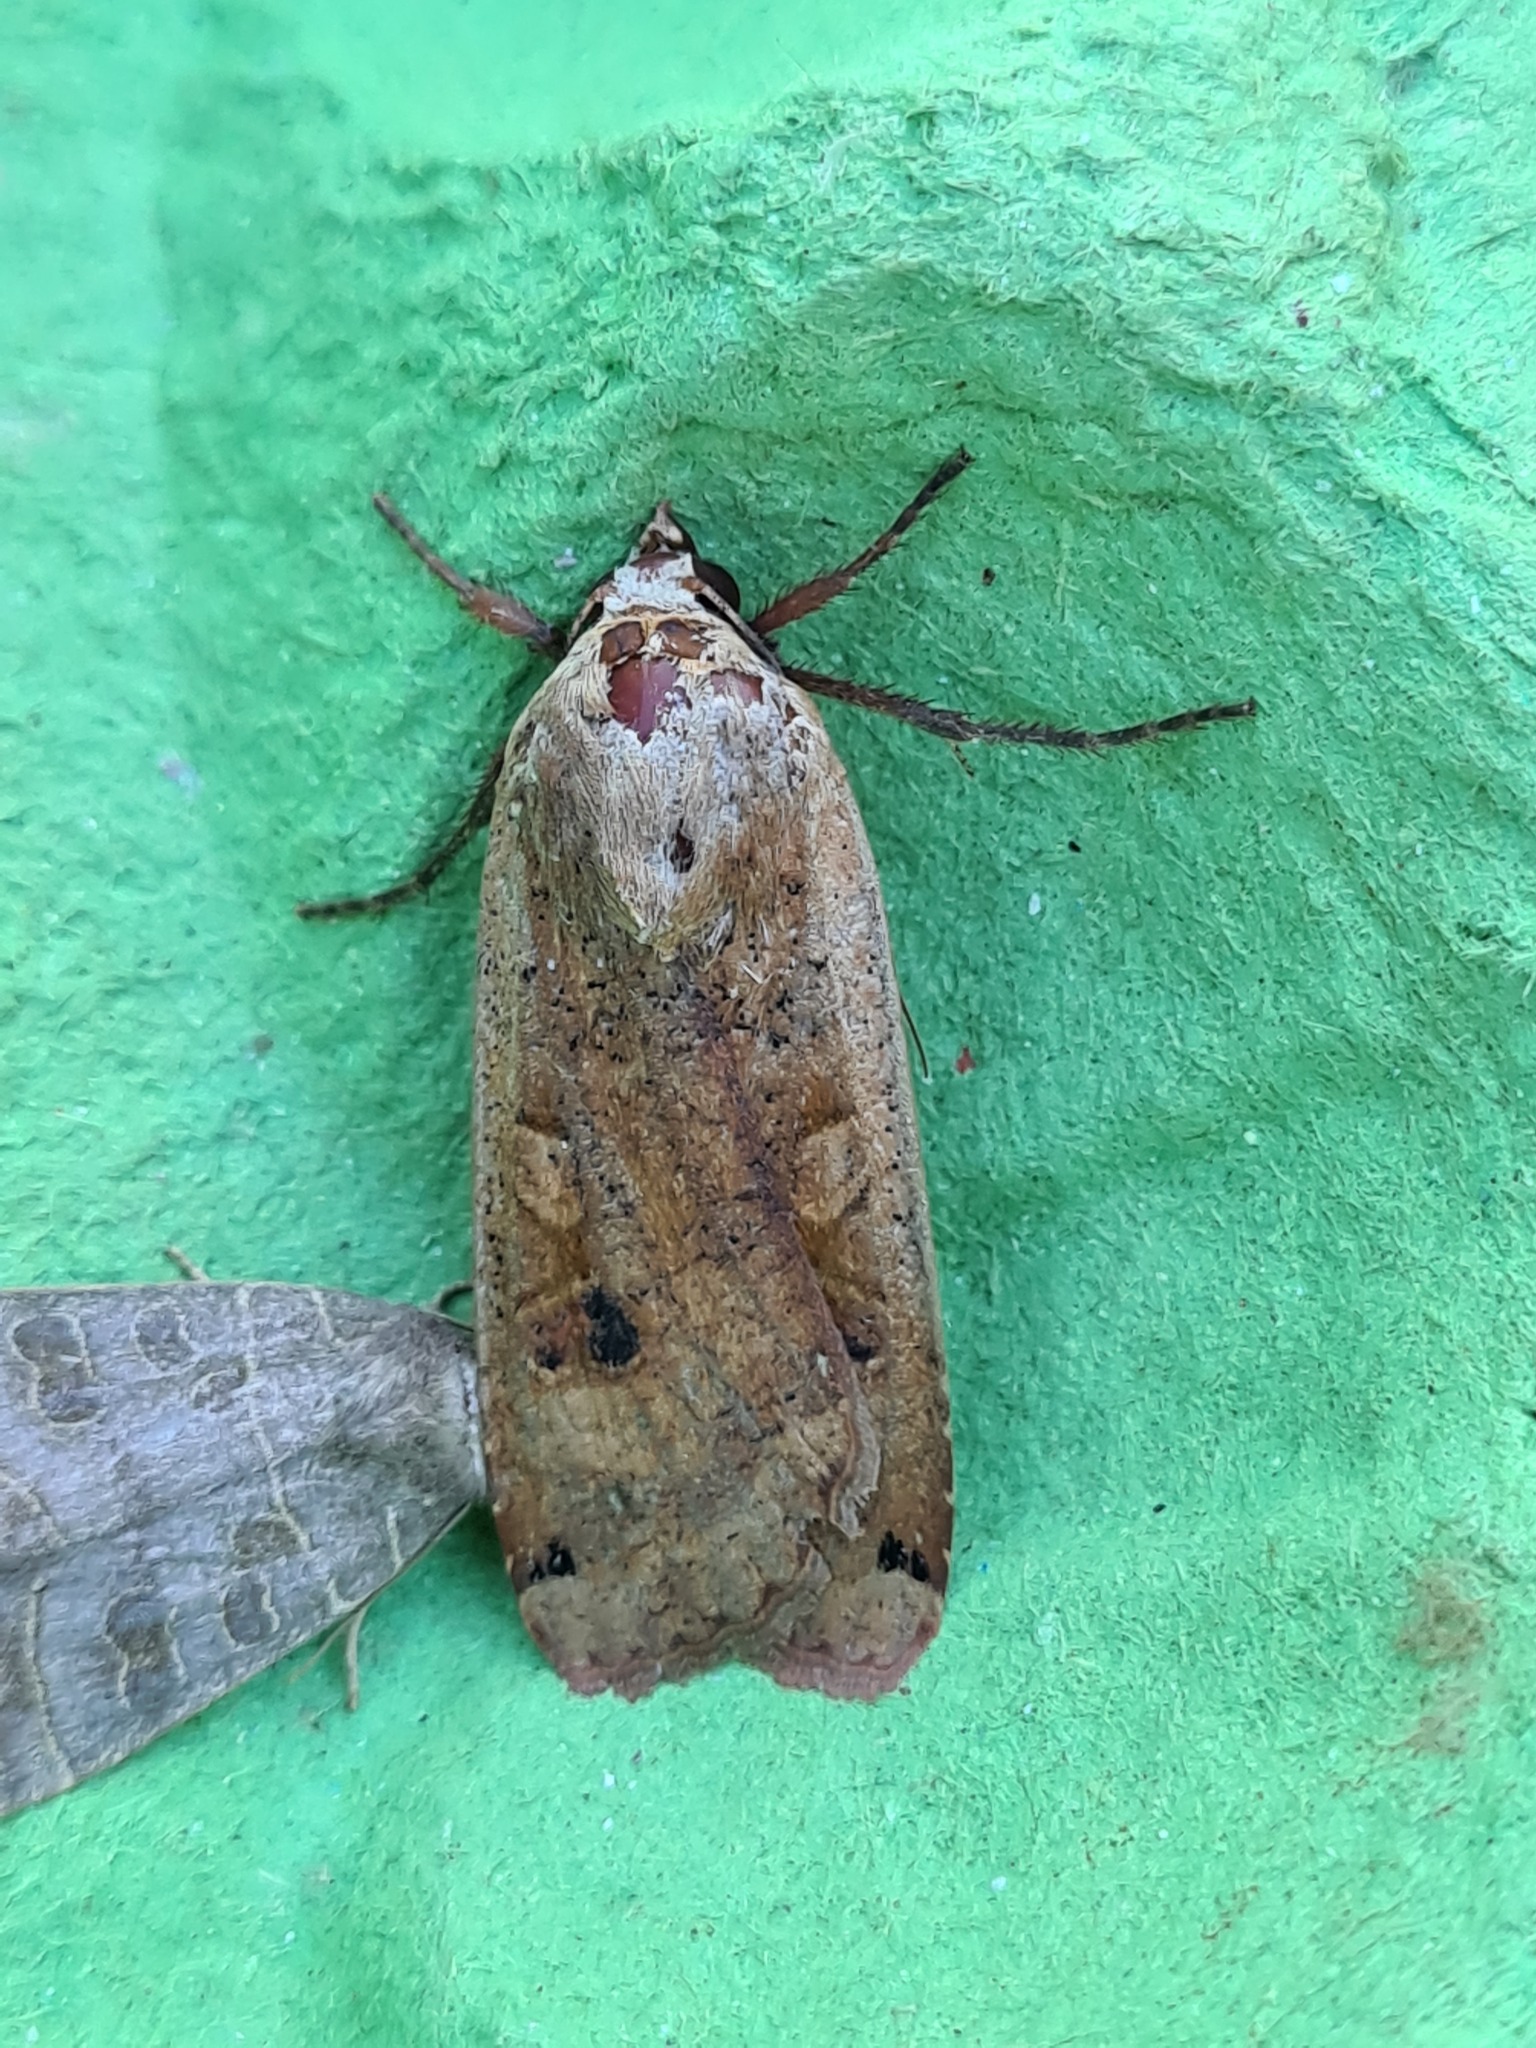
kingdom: Animalia
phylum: Arthropoda
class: Insecta
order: Lepidoptera
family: Noctuidae
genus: Noctua
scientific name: Noctua pronuba
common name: Large yellow underwing
